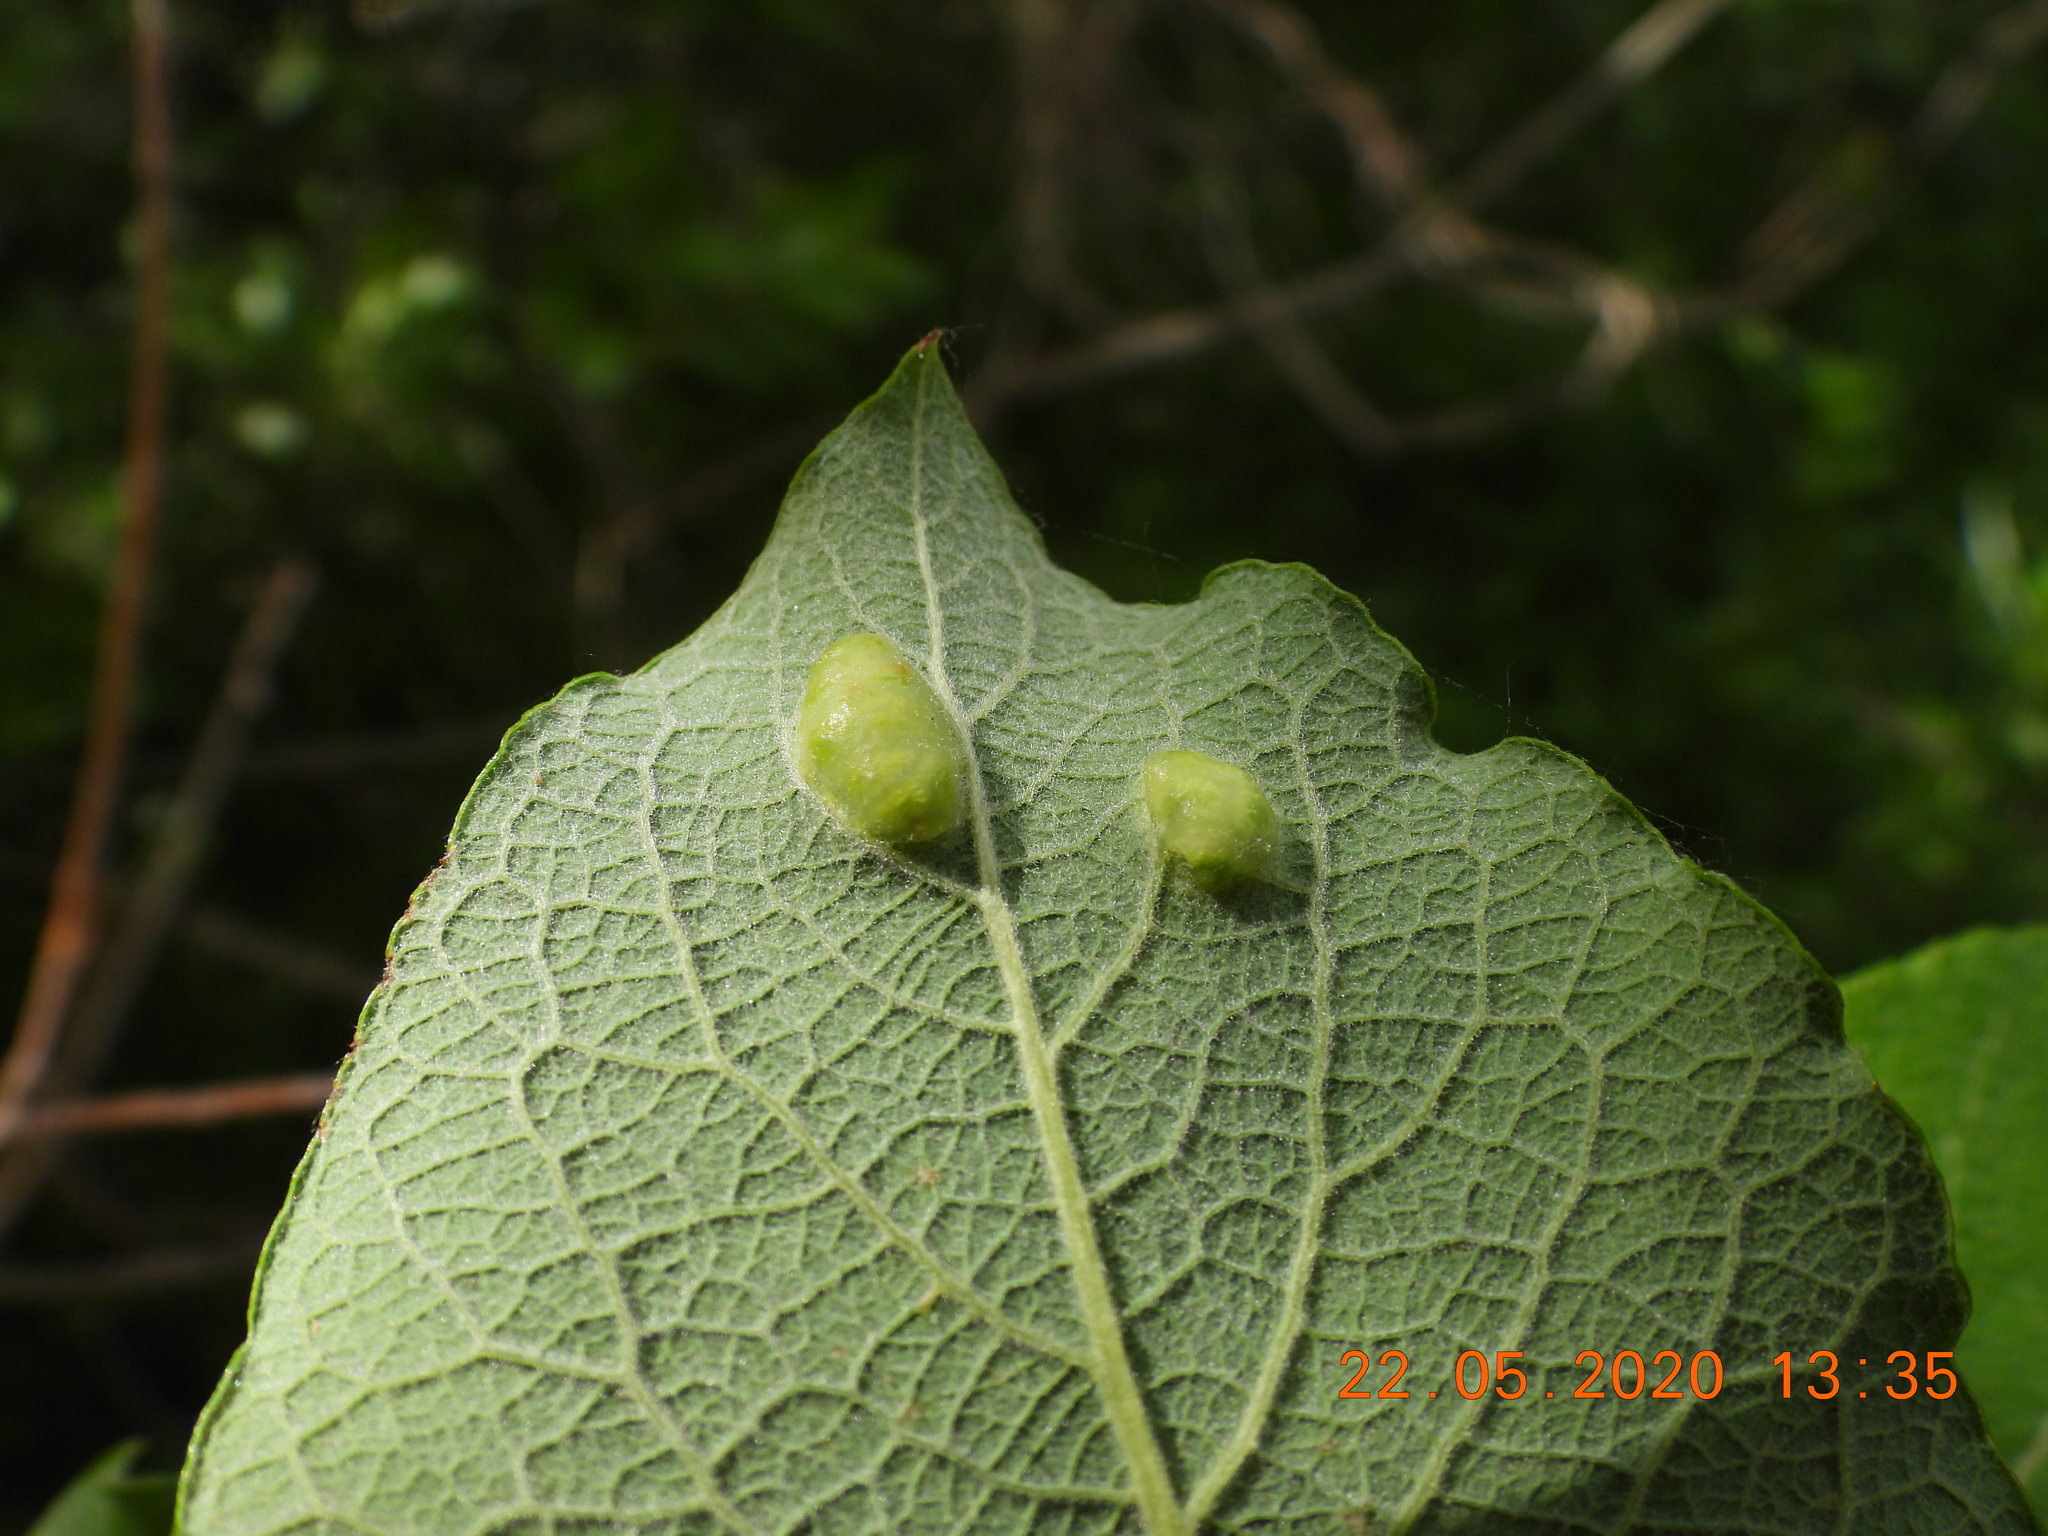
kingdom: Animalia
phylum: Arthropoda
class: Insecta
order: Hymenoptera
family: Tenthredinidae
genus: Pontania
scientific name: Pontania pedunculi
